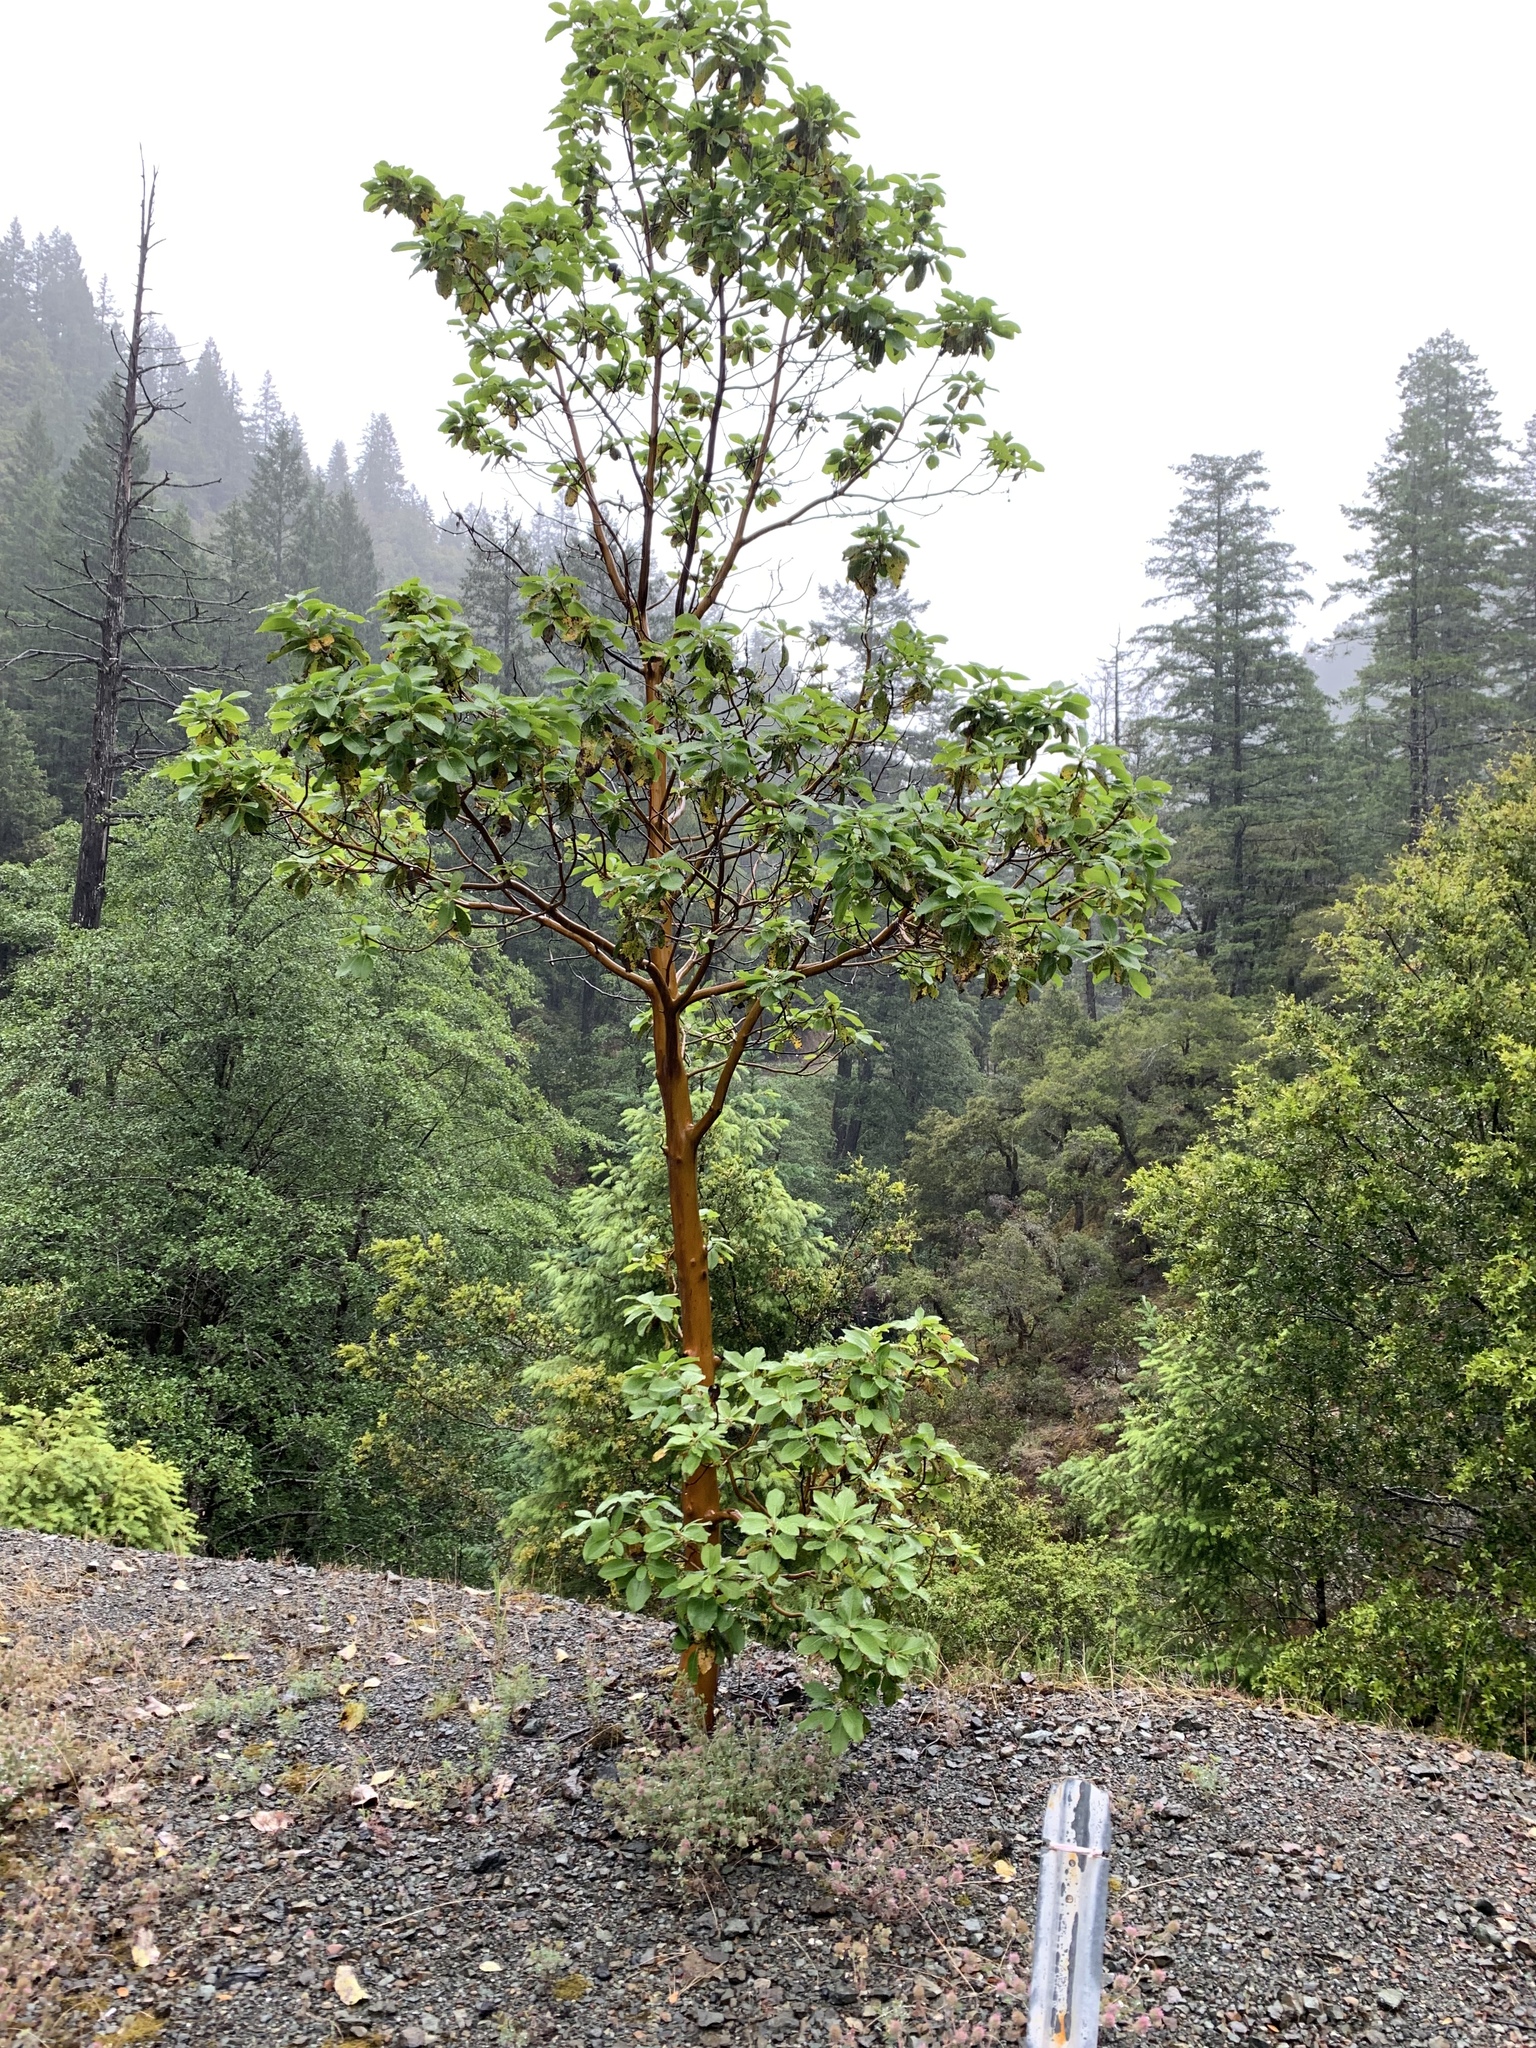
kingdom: Plantae
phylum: Tracheophyta
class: Magnoliopsida
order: Ericales
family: Ericaceae
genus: Arbutus
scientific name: Arbutus menziesii
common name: Pacific madrone
